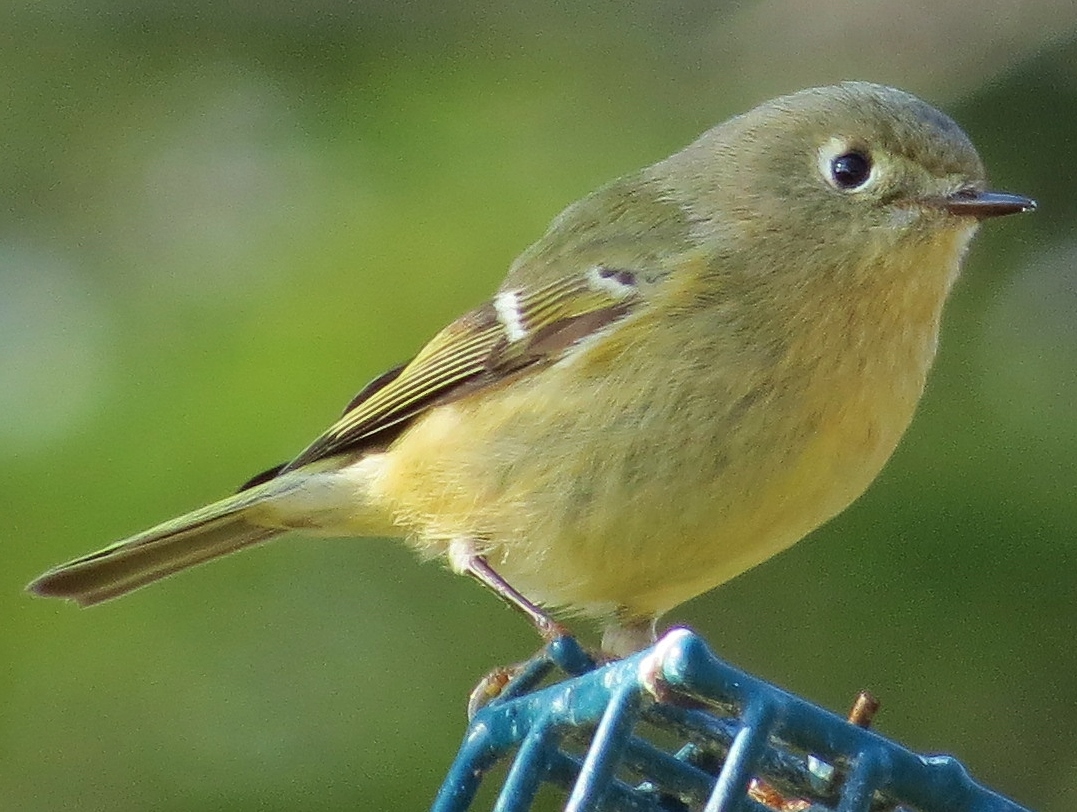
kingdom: Animalia
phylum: Chordata
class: Aves
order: Passeriformes
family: Regulidae
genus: Regulus
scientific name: Regulus calendula
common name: Ruby-crowned kinglet
